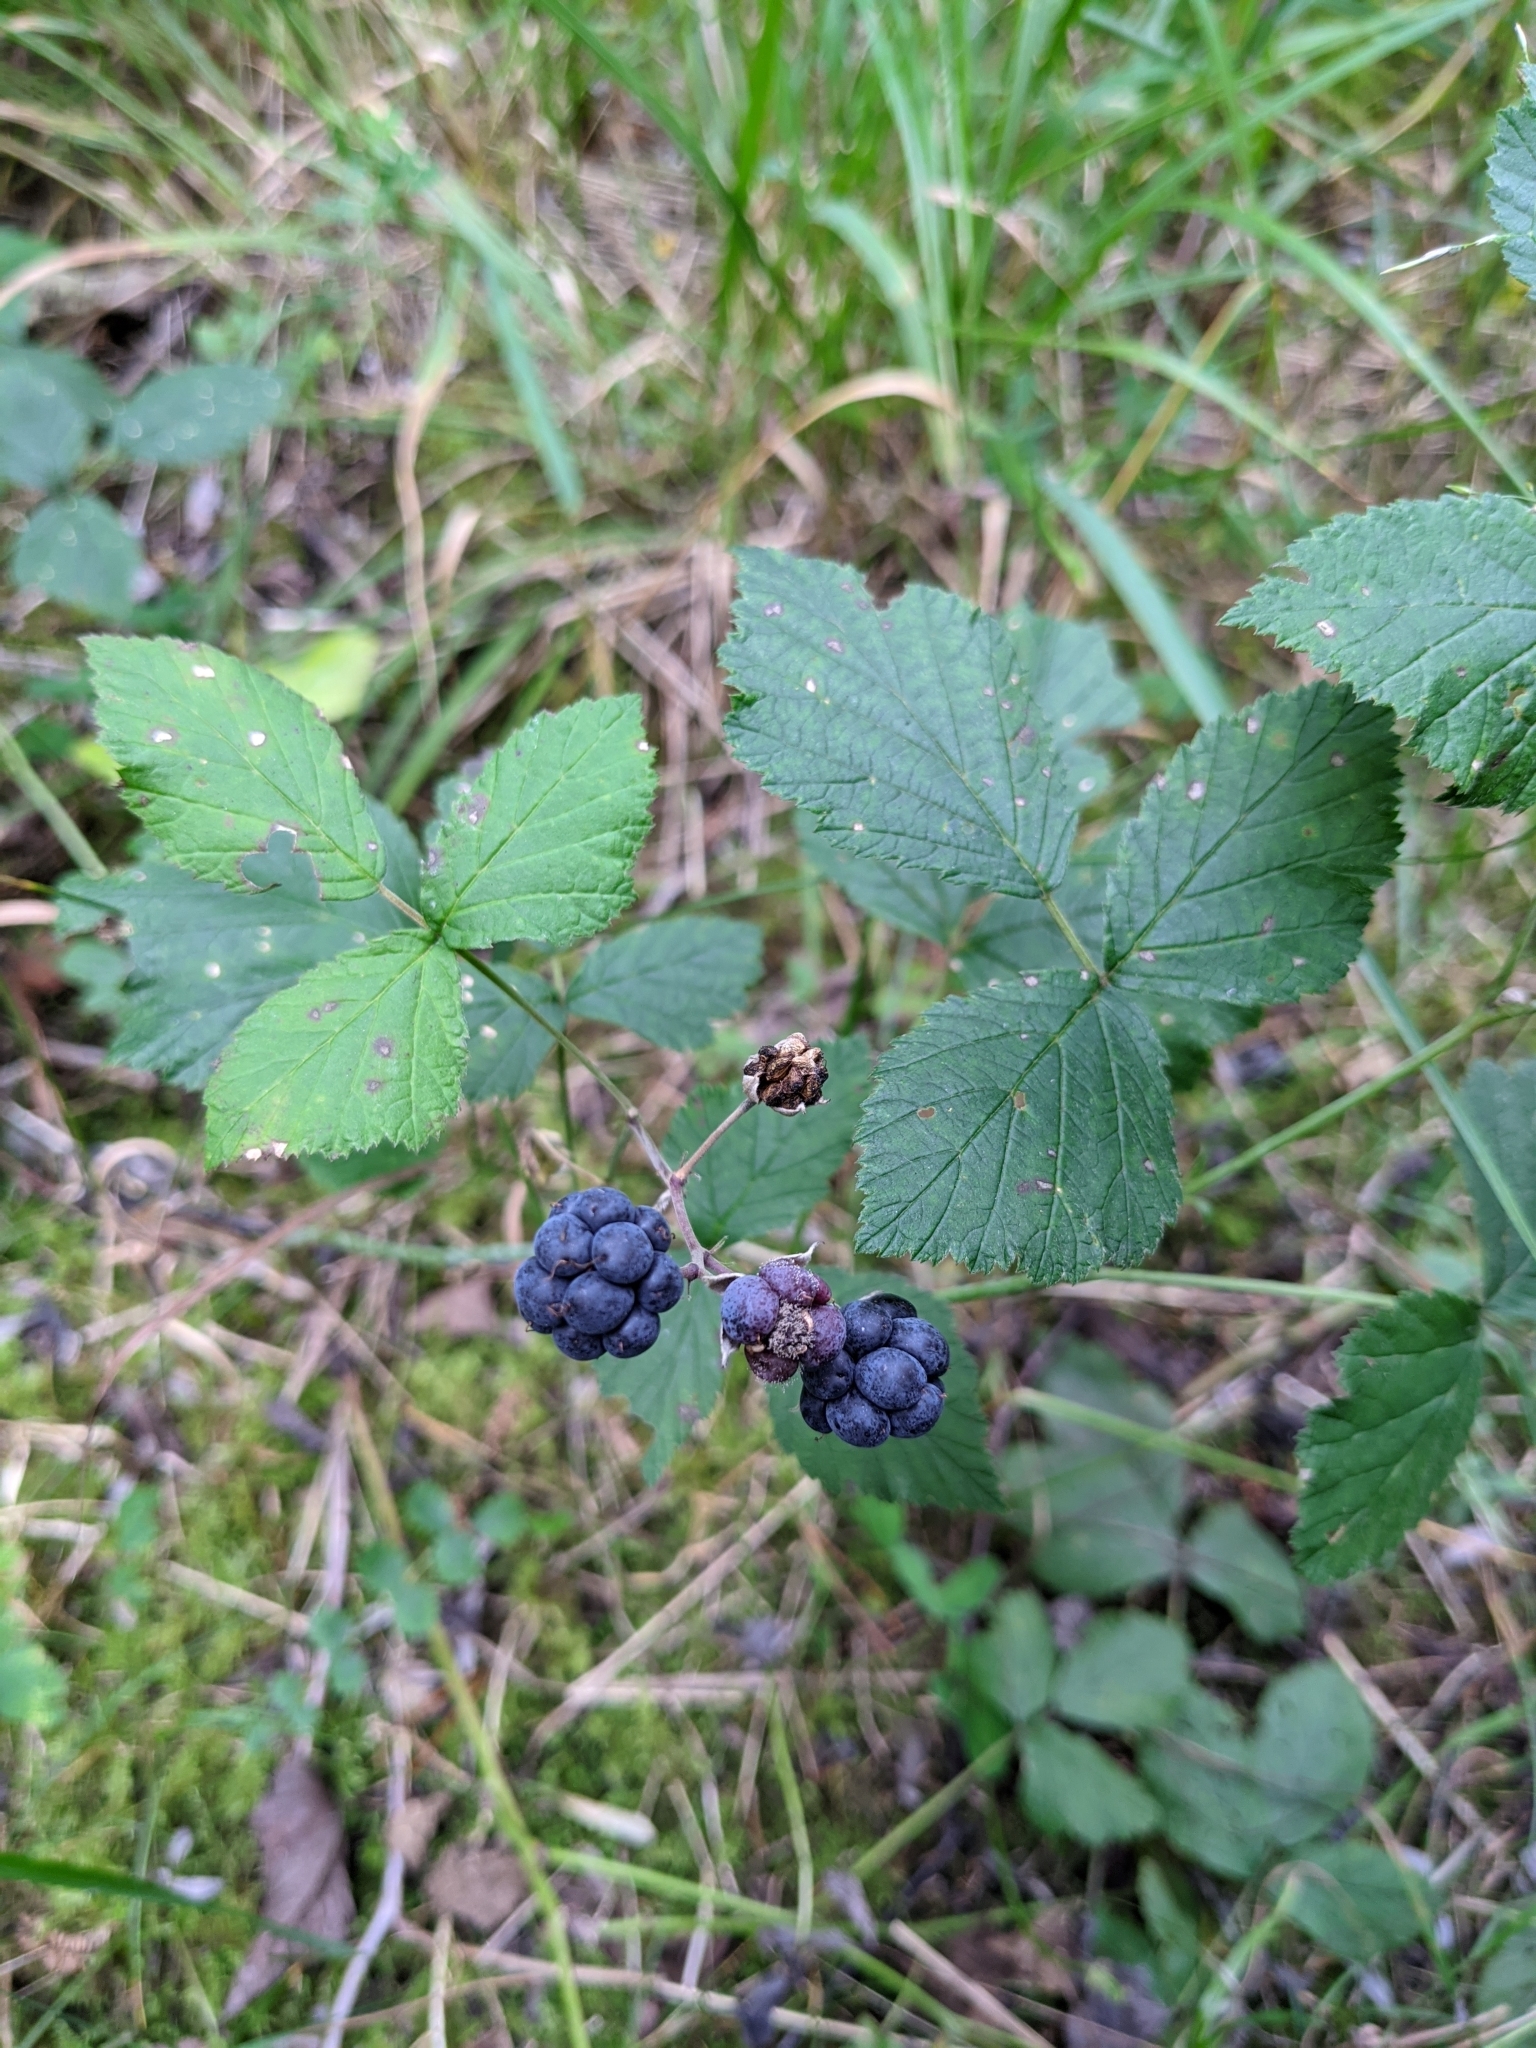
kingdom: Plantae
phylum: Tracheophyta
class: Magnoliopsida
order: Rosales
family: Rosaceae
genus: Rubus
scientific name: Rubus caesius
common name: Dewberry
